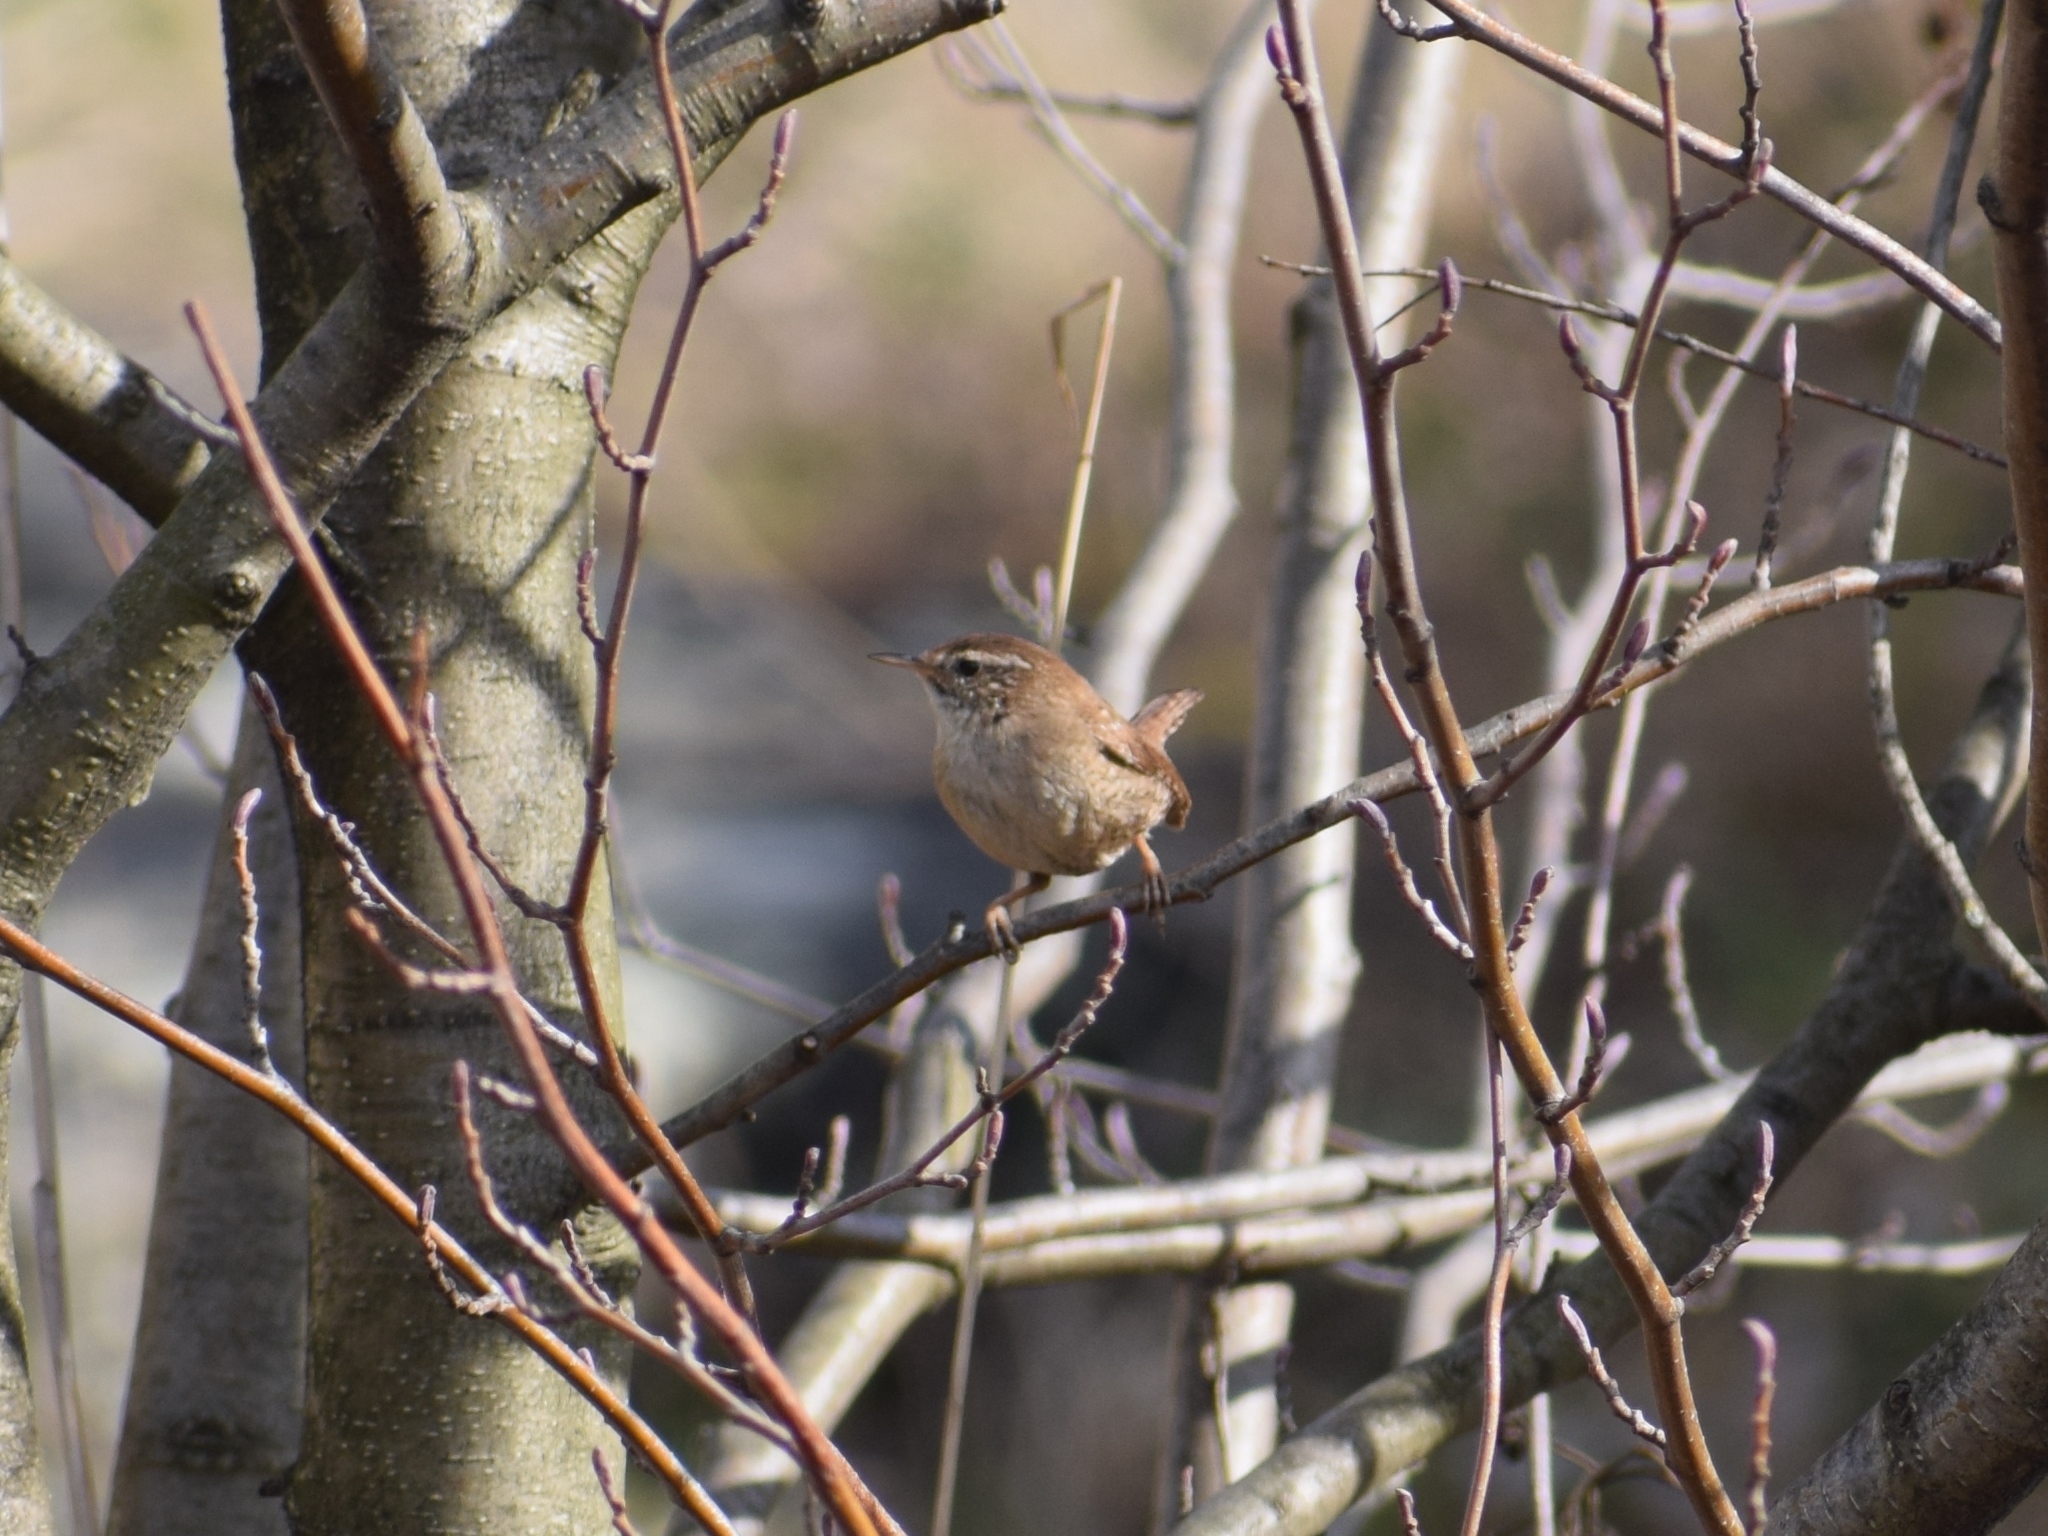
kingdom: Animalia
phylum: Chordata
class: Aves
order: Passeriformes
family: Troglodytidae
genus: Troglodytes
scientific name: Troglodytes troglodytes
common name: Eurasian wren
